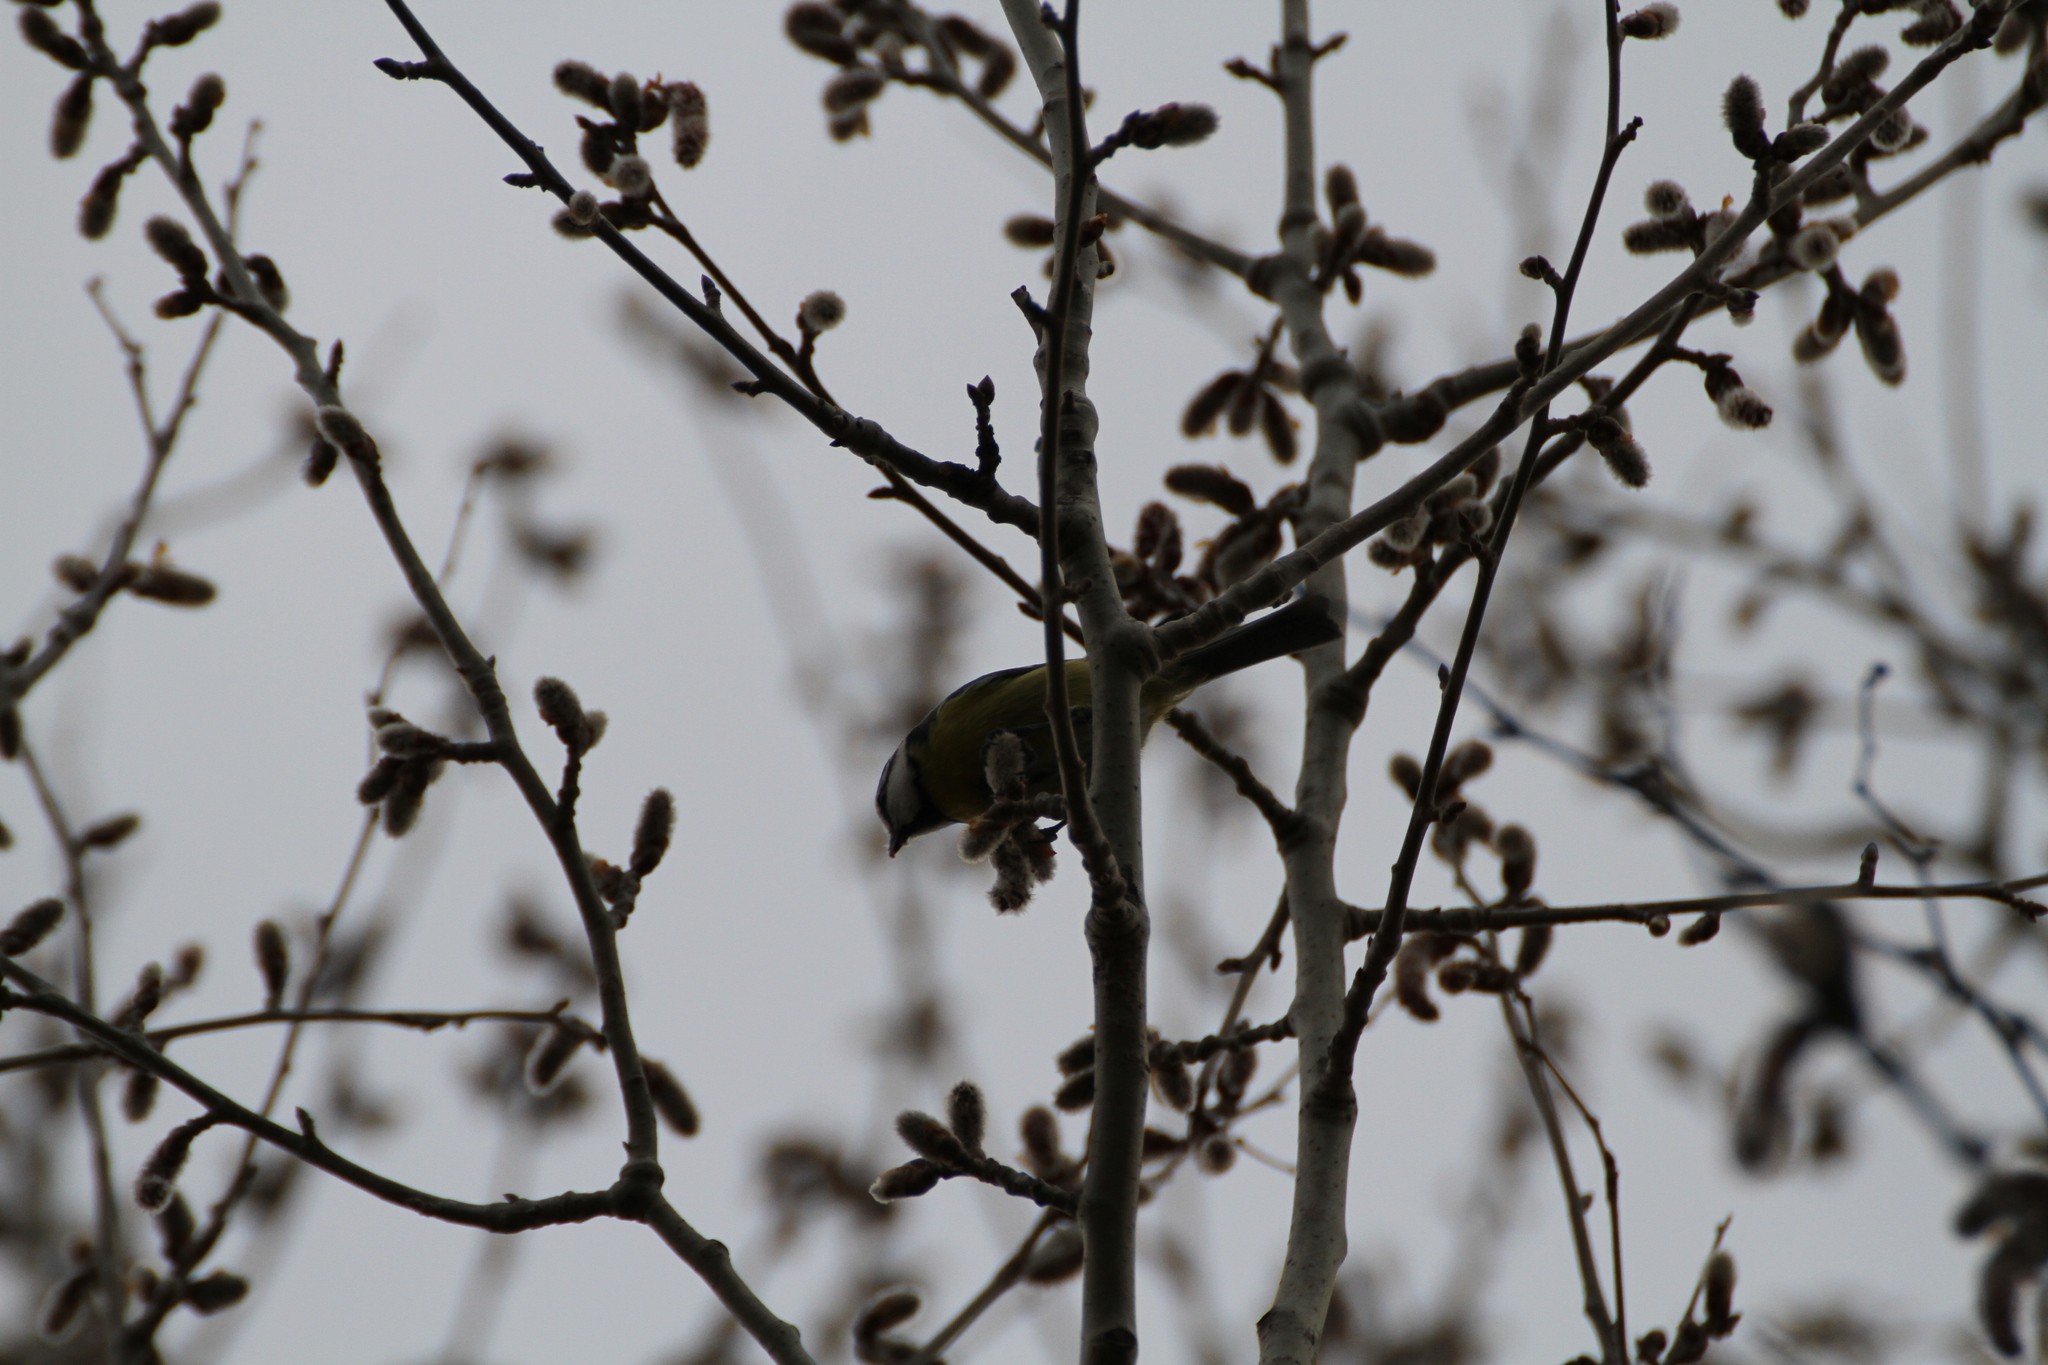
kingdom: Animalia
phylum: Chordata
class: Aves
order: Passeriformes
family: Paridae
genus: Cyanistes
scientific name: Cyanistes caeruleus
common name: Eurasian blue tit
